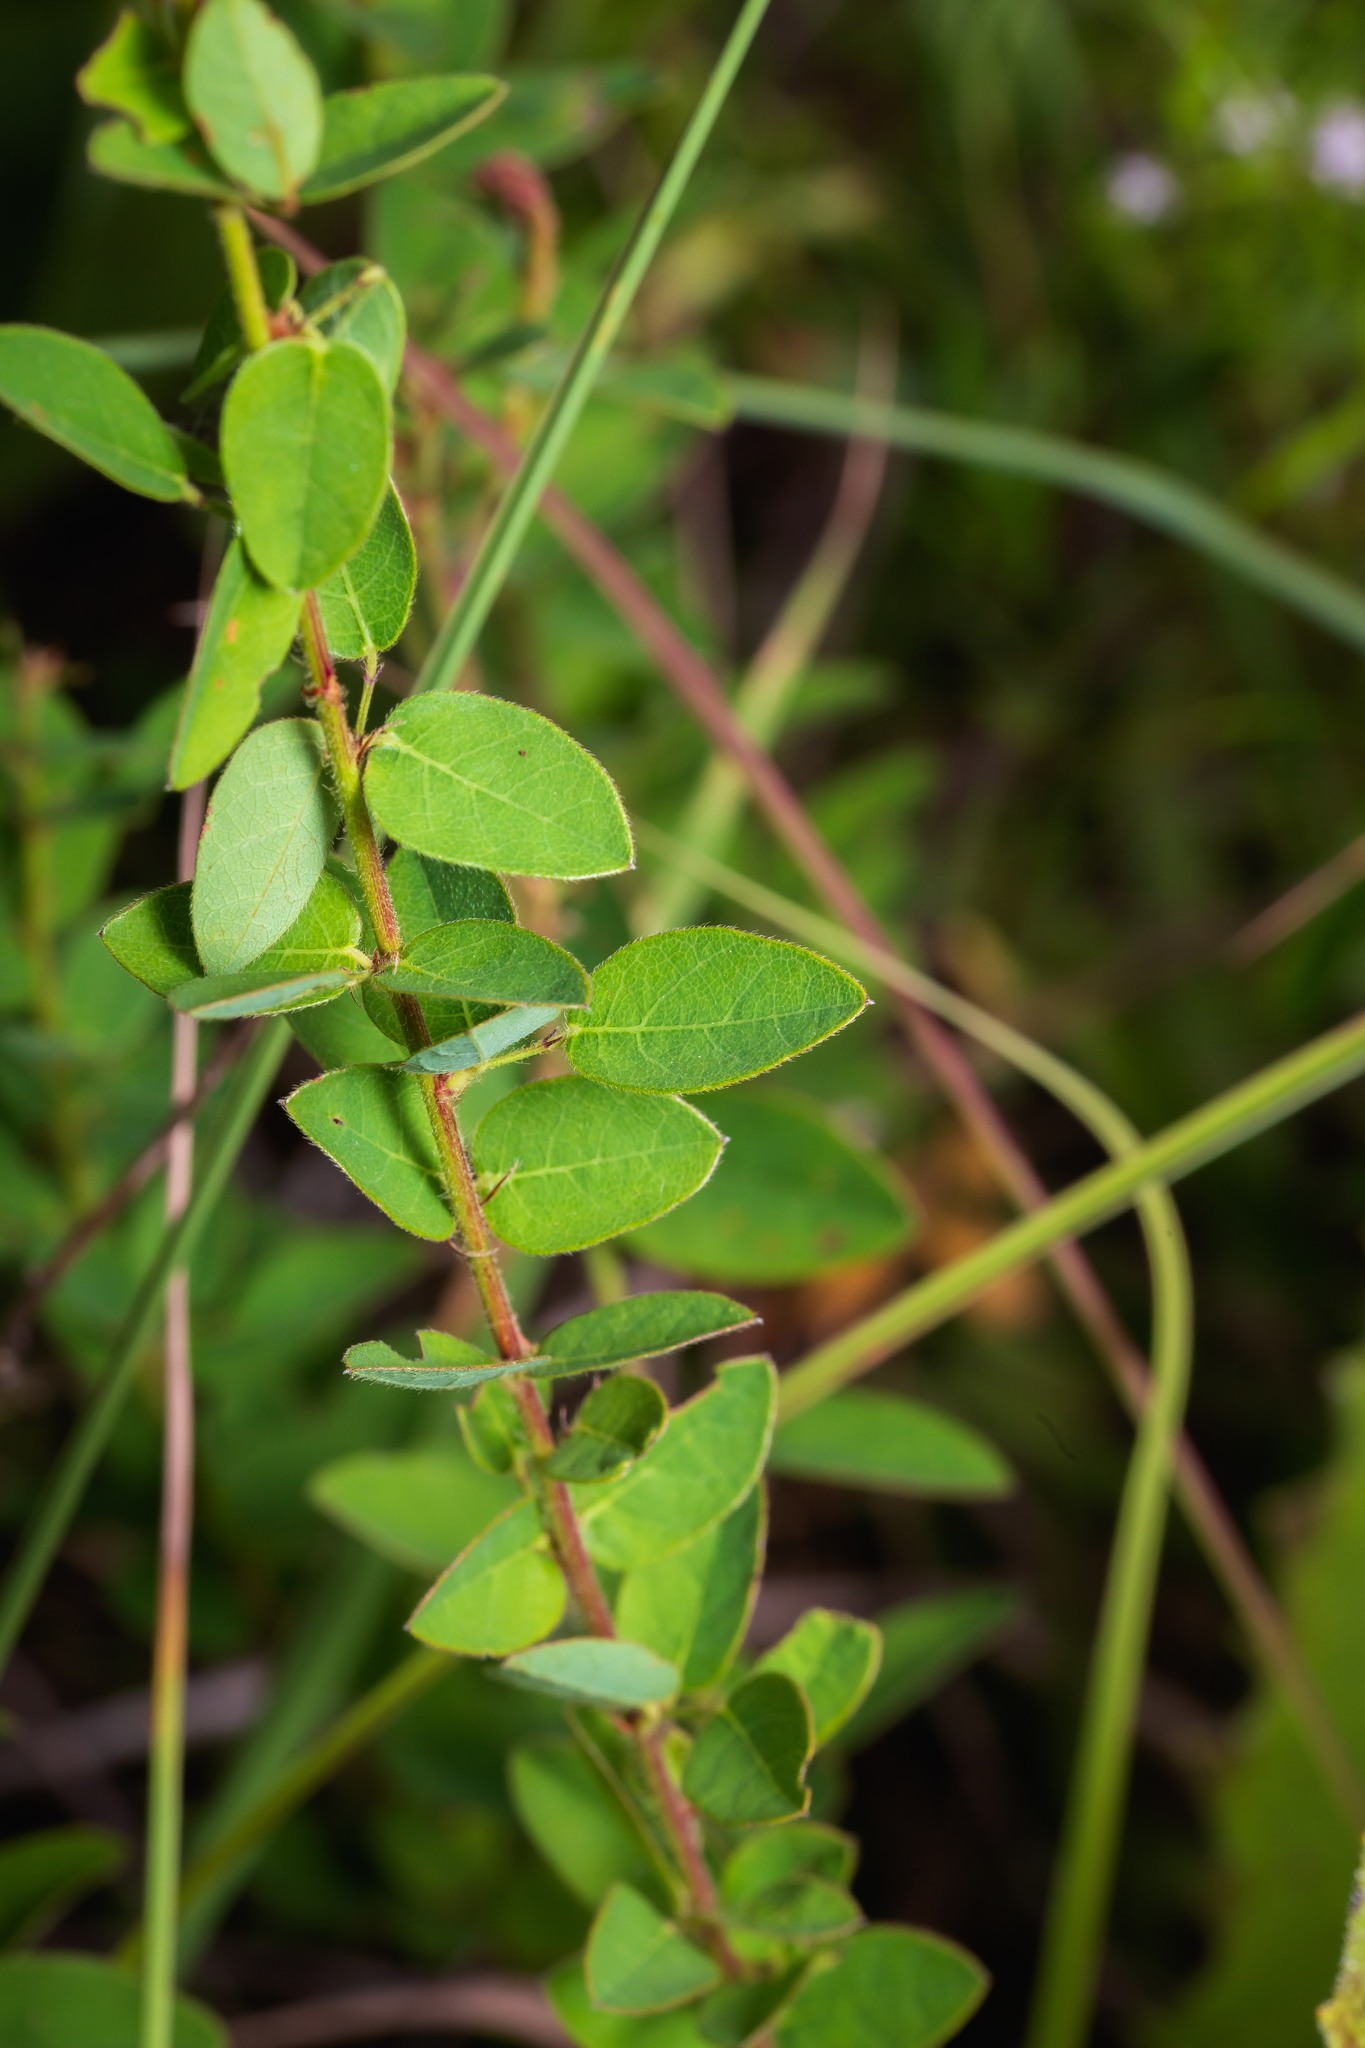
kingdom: Plantae
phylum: Tracheophyta
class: Magnoliopsida
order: Fabales
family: Fabaceae
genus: Desmodium
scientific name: Desmodium ciliare
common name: Hairy small-leaf ticktrefoil
